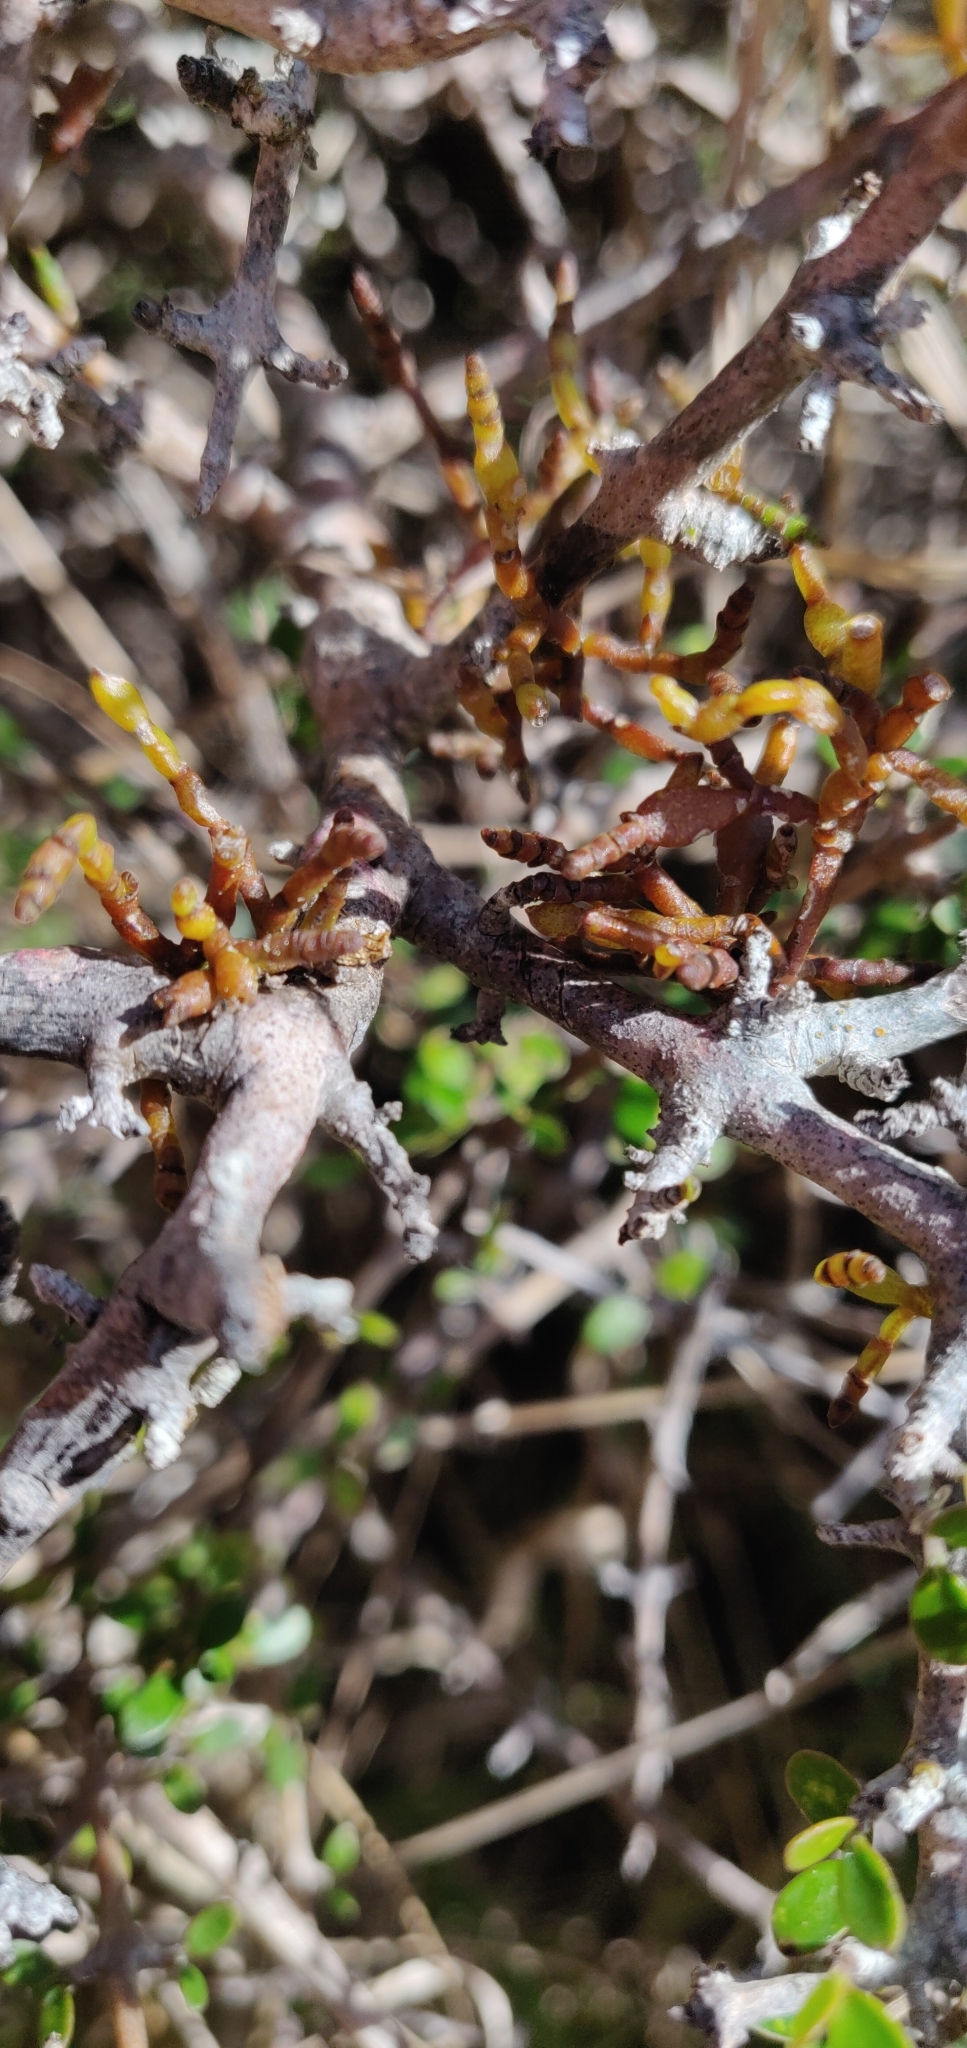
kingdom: Plantae
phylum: Tracheophyta
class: Magnoliopsida
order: Santalales
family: Viscaceae
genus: Korthalsella
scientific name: Korthalsella clavata
